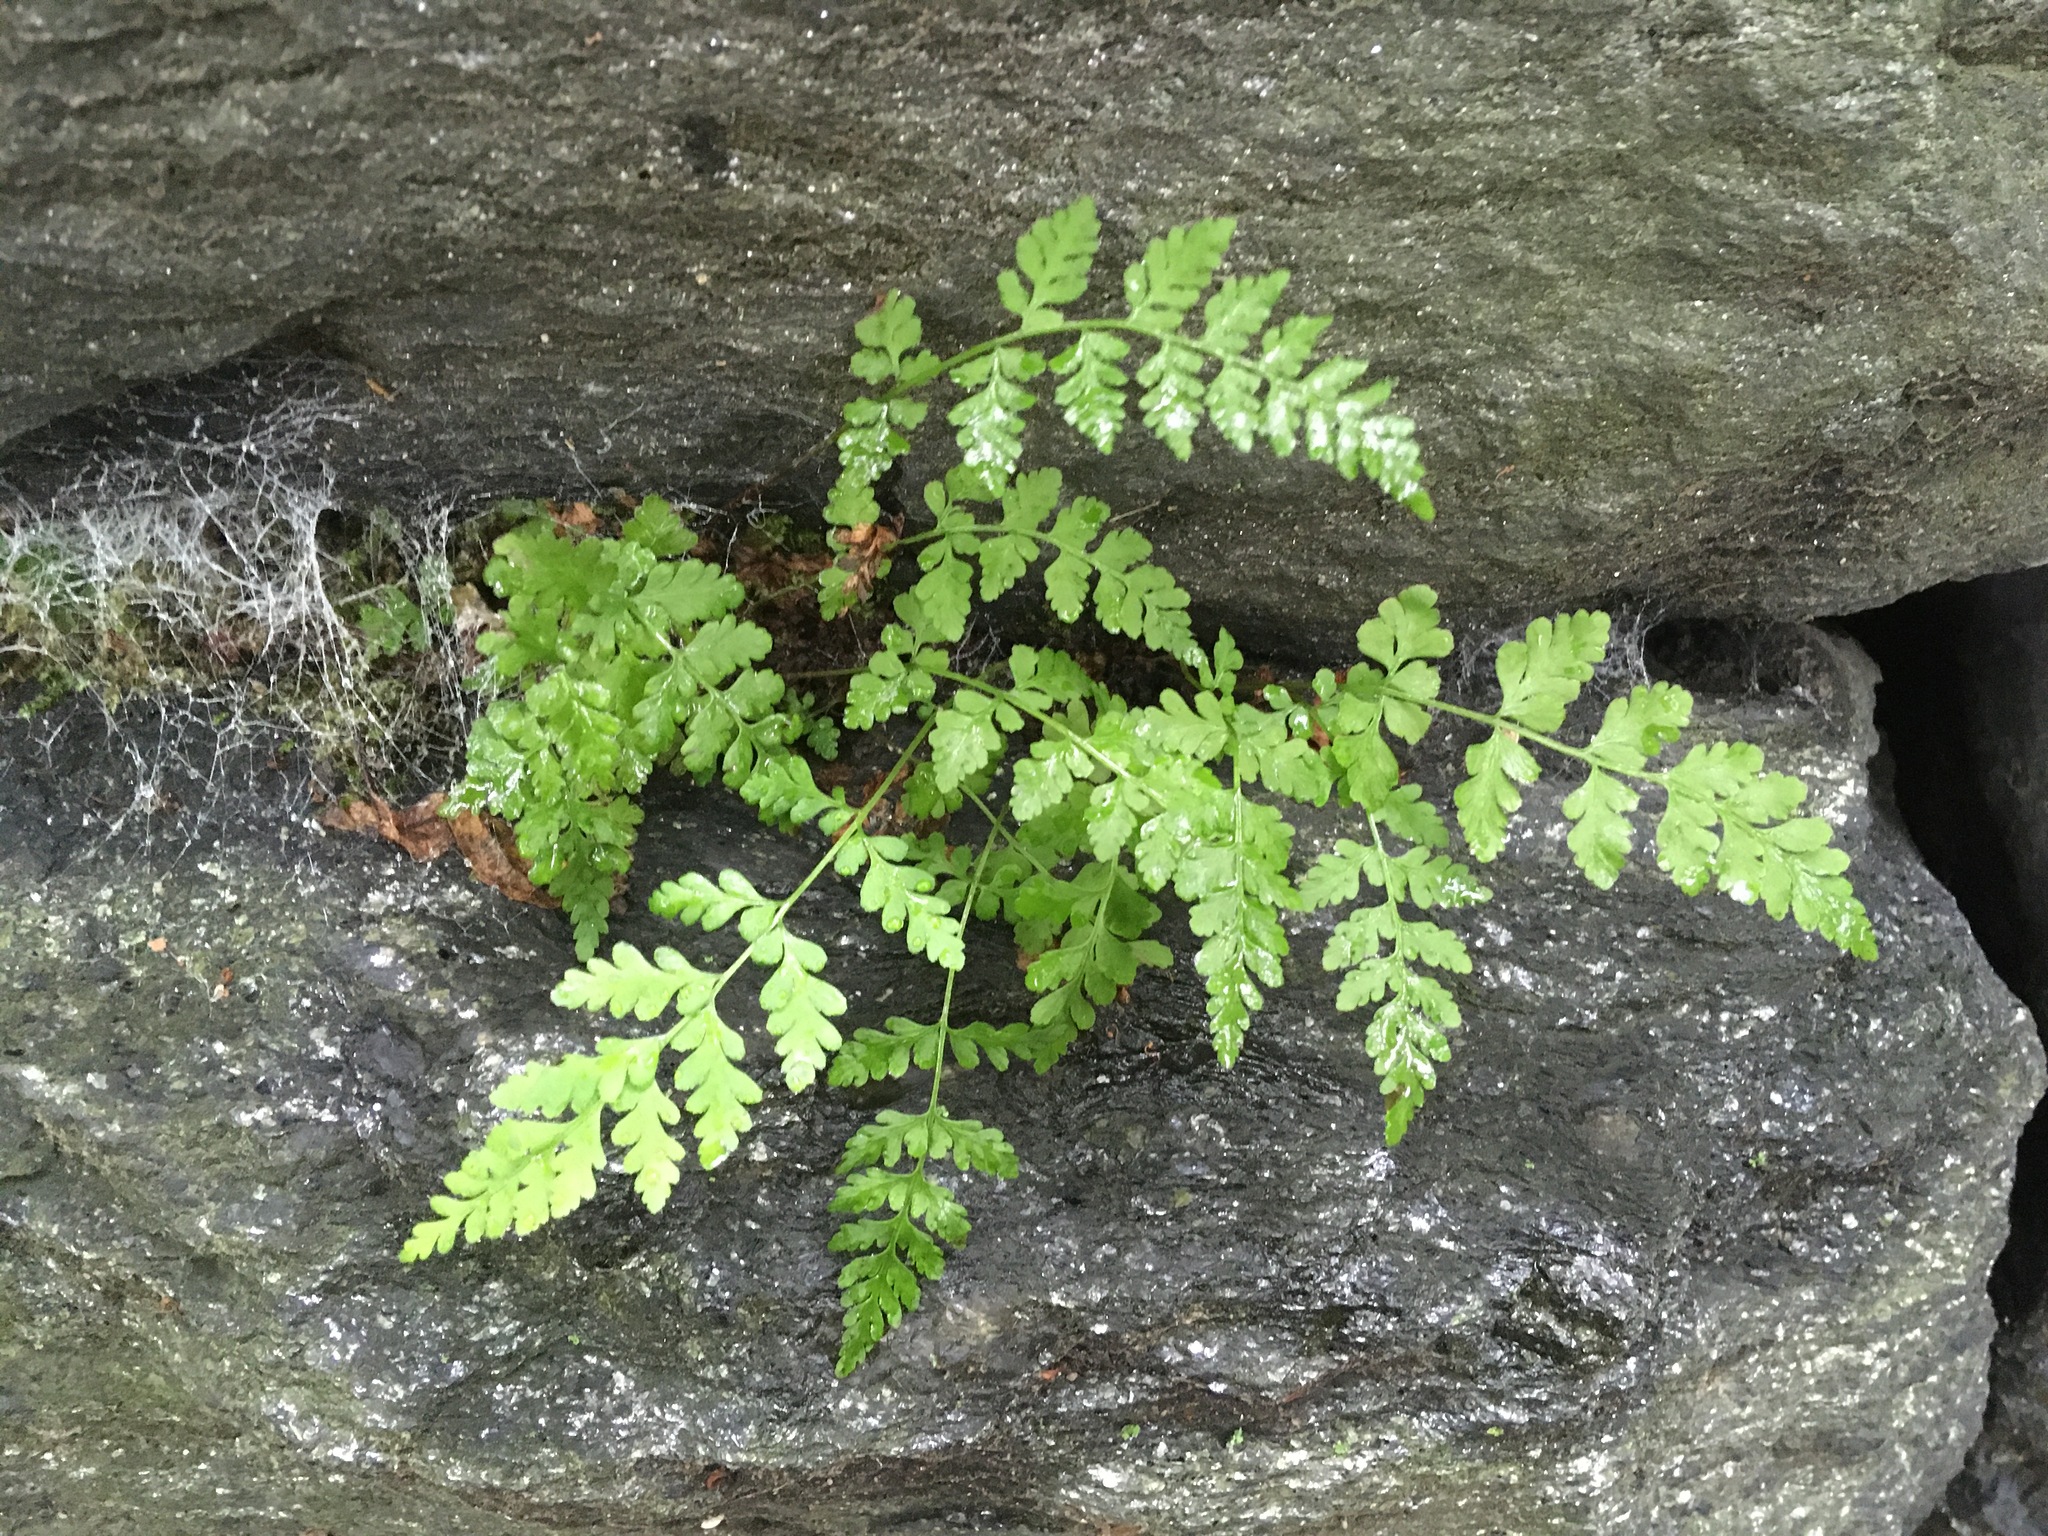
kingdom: Plantae
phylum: Tracheophyta
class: Polypodiopsida
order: Polypodiales
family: Cystopteridaceae
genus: Cystopteris
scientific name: Cystopteris fragilis
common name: Brittle bladder fern
